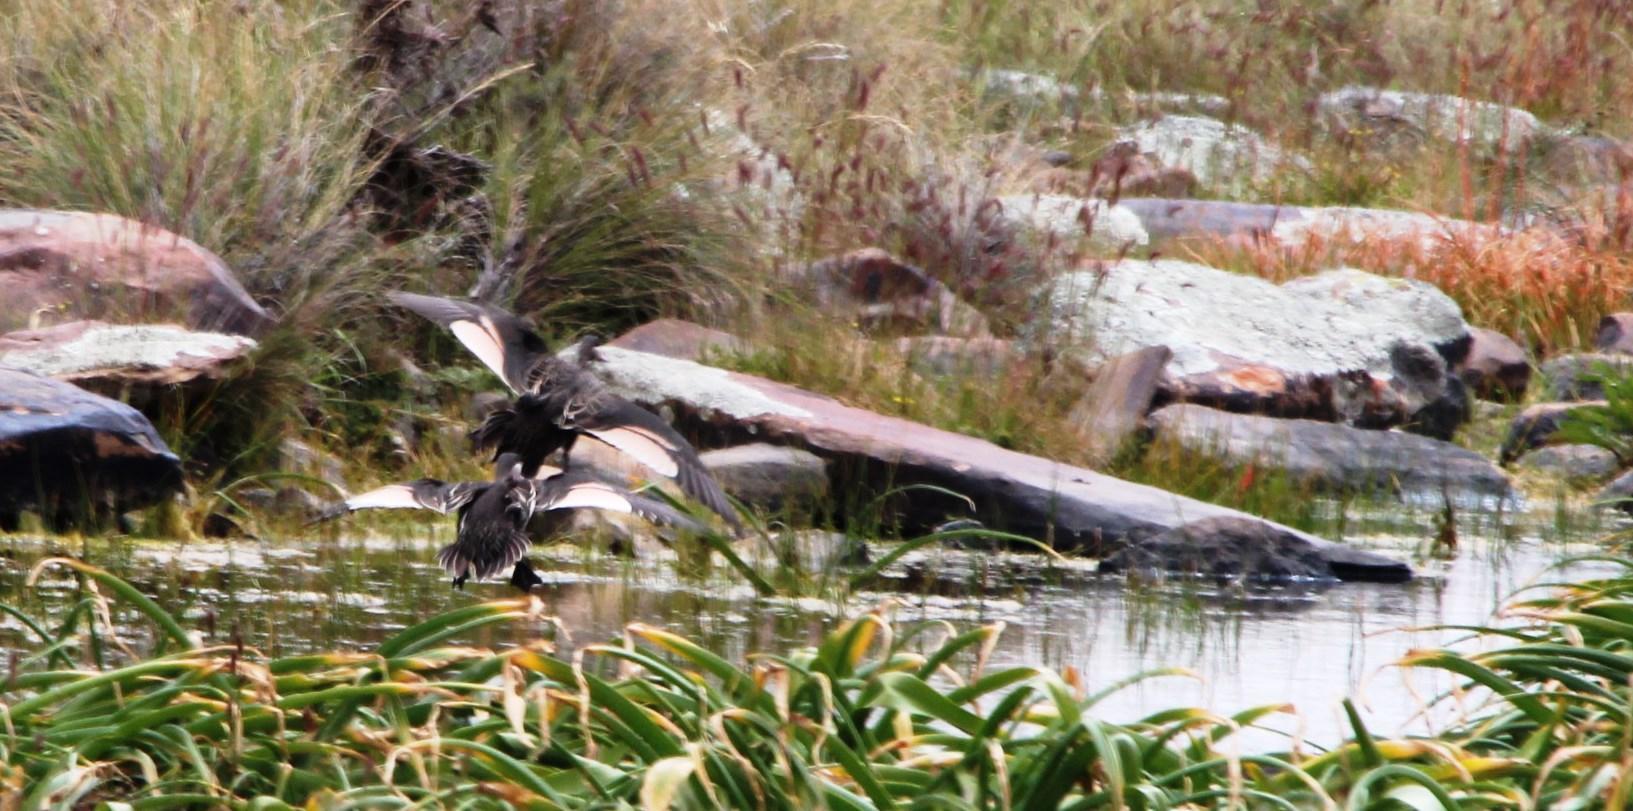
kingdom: Animalia
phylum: Chordata
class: Aves
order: Anseriformes
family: Anatidae
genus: Anas
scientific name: Anas erythrorhyncha
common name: Red-billed teal
